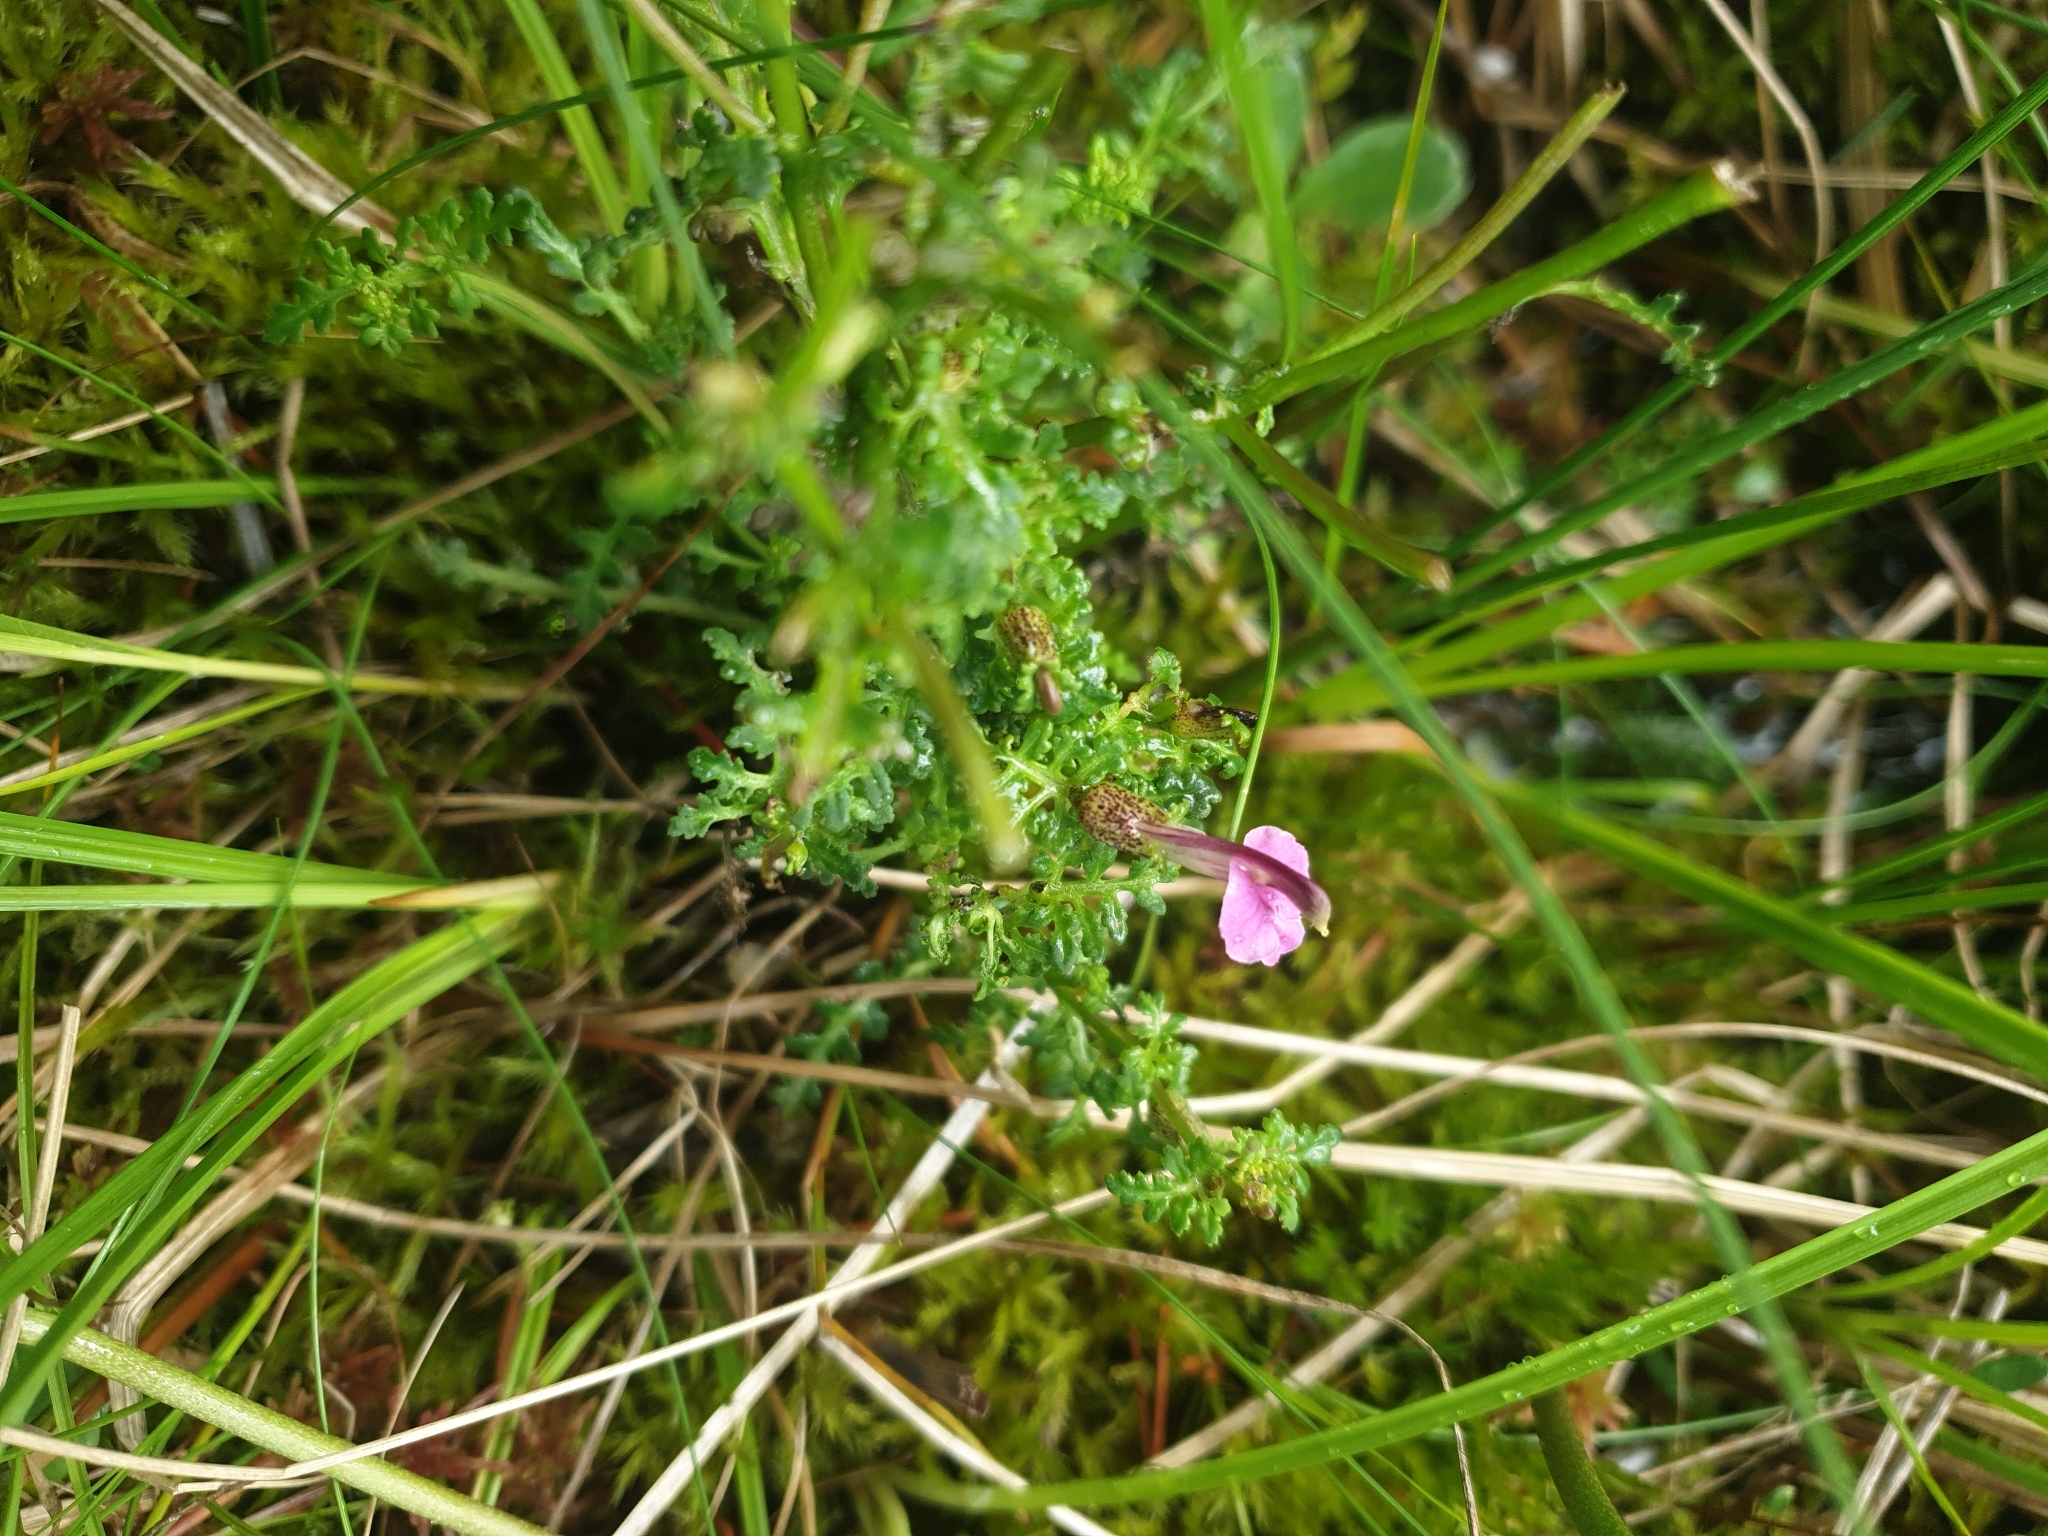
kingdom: Plantae
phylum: Tracheophyta
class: Magnoliopsida
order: Lamiales
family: Orobanchaceae
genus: Pedicularis
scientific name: Pedicularis palustris
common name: Marsh lousewort
